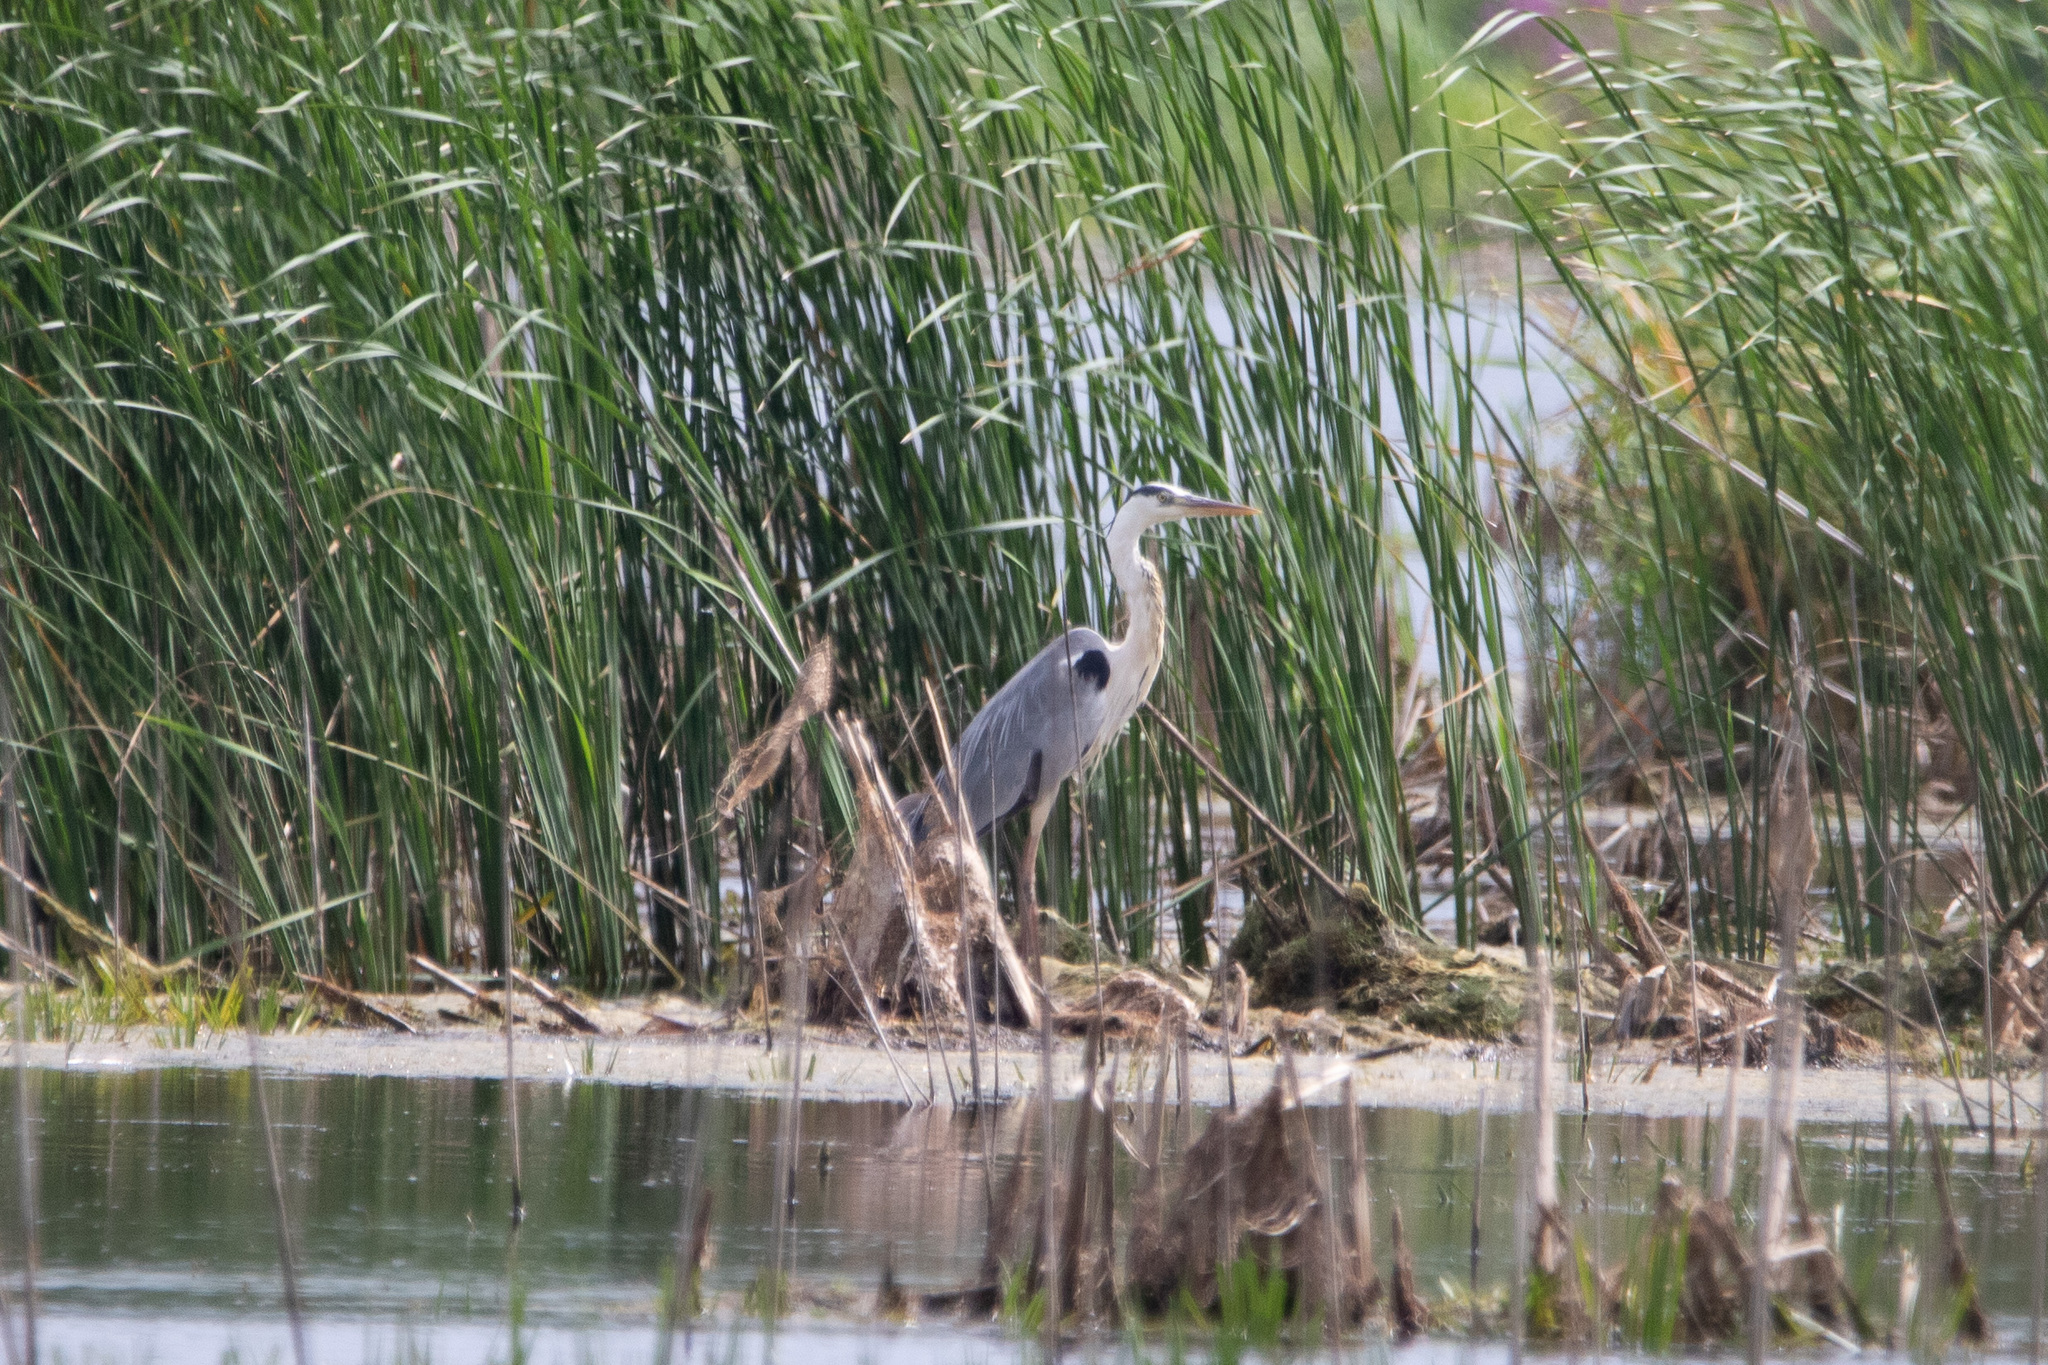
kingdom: Animalia
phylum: Chordata
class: Aves
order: Pelecaniformes
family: Ardeidae
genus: Ardea
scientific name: Ardea cinerea
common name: Grey heron
